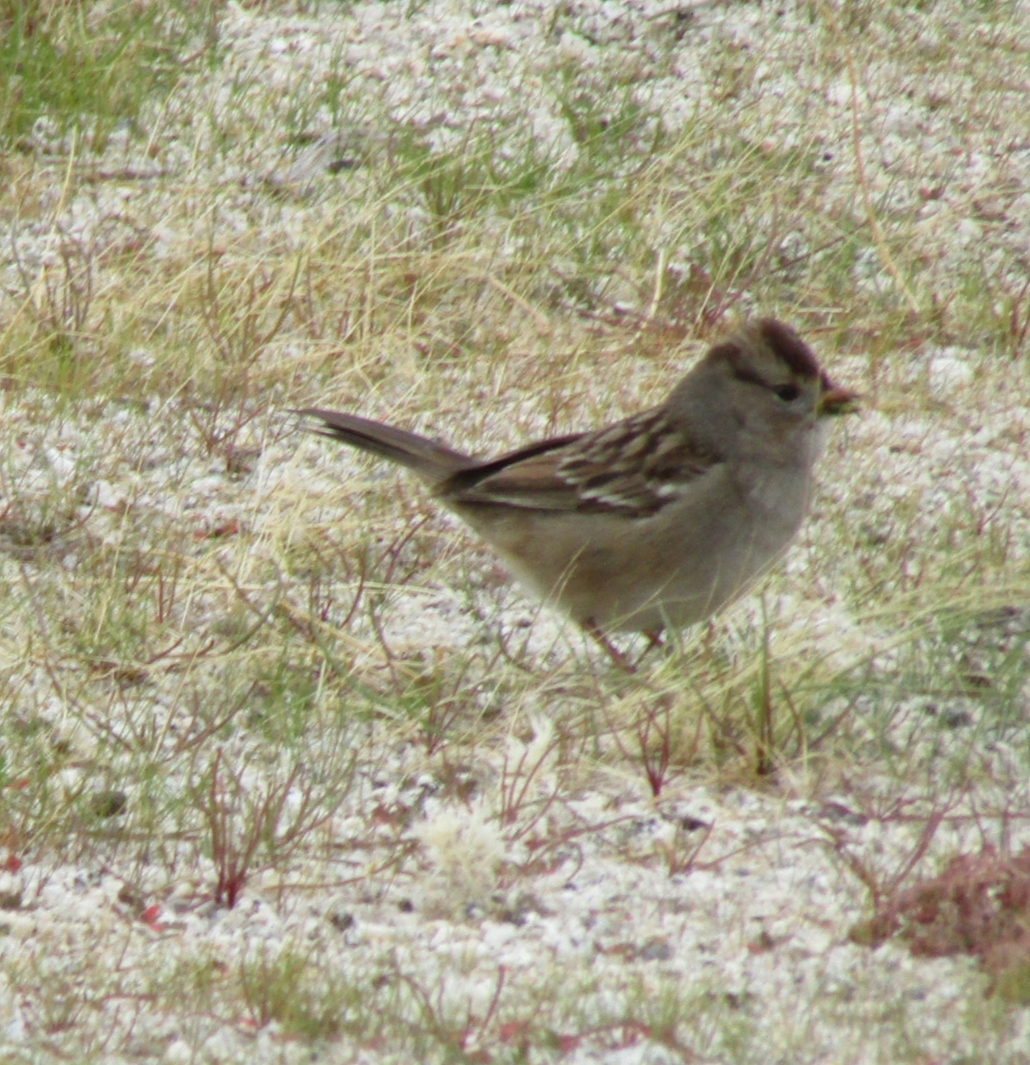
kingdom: Animalia
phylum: Chordata
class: Aves
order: Passeriformes
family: Passerellidae
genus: Zonotrichia
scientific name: Zonotrichia leucophrys
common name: White-crowned sparrow
